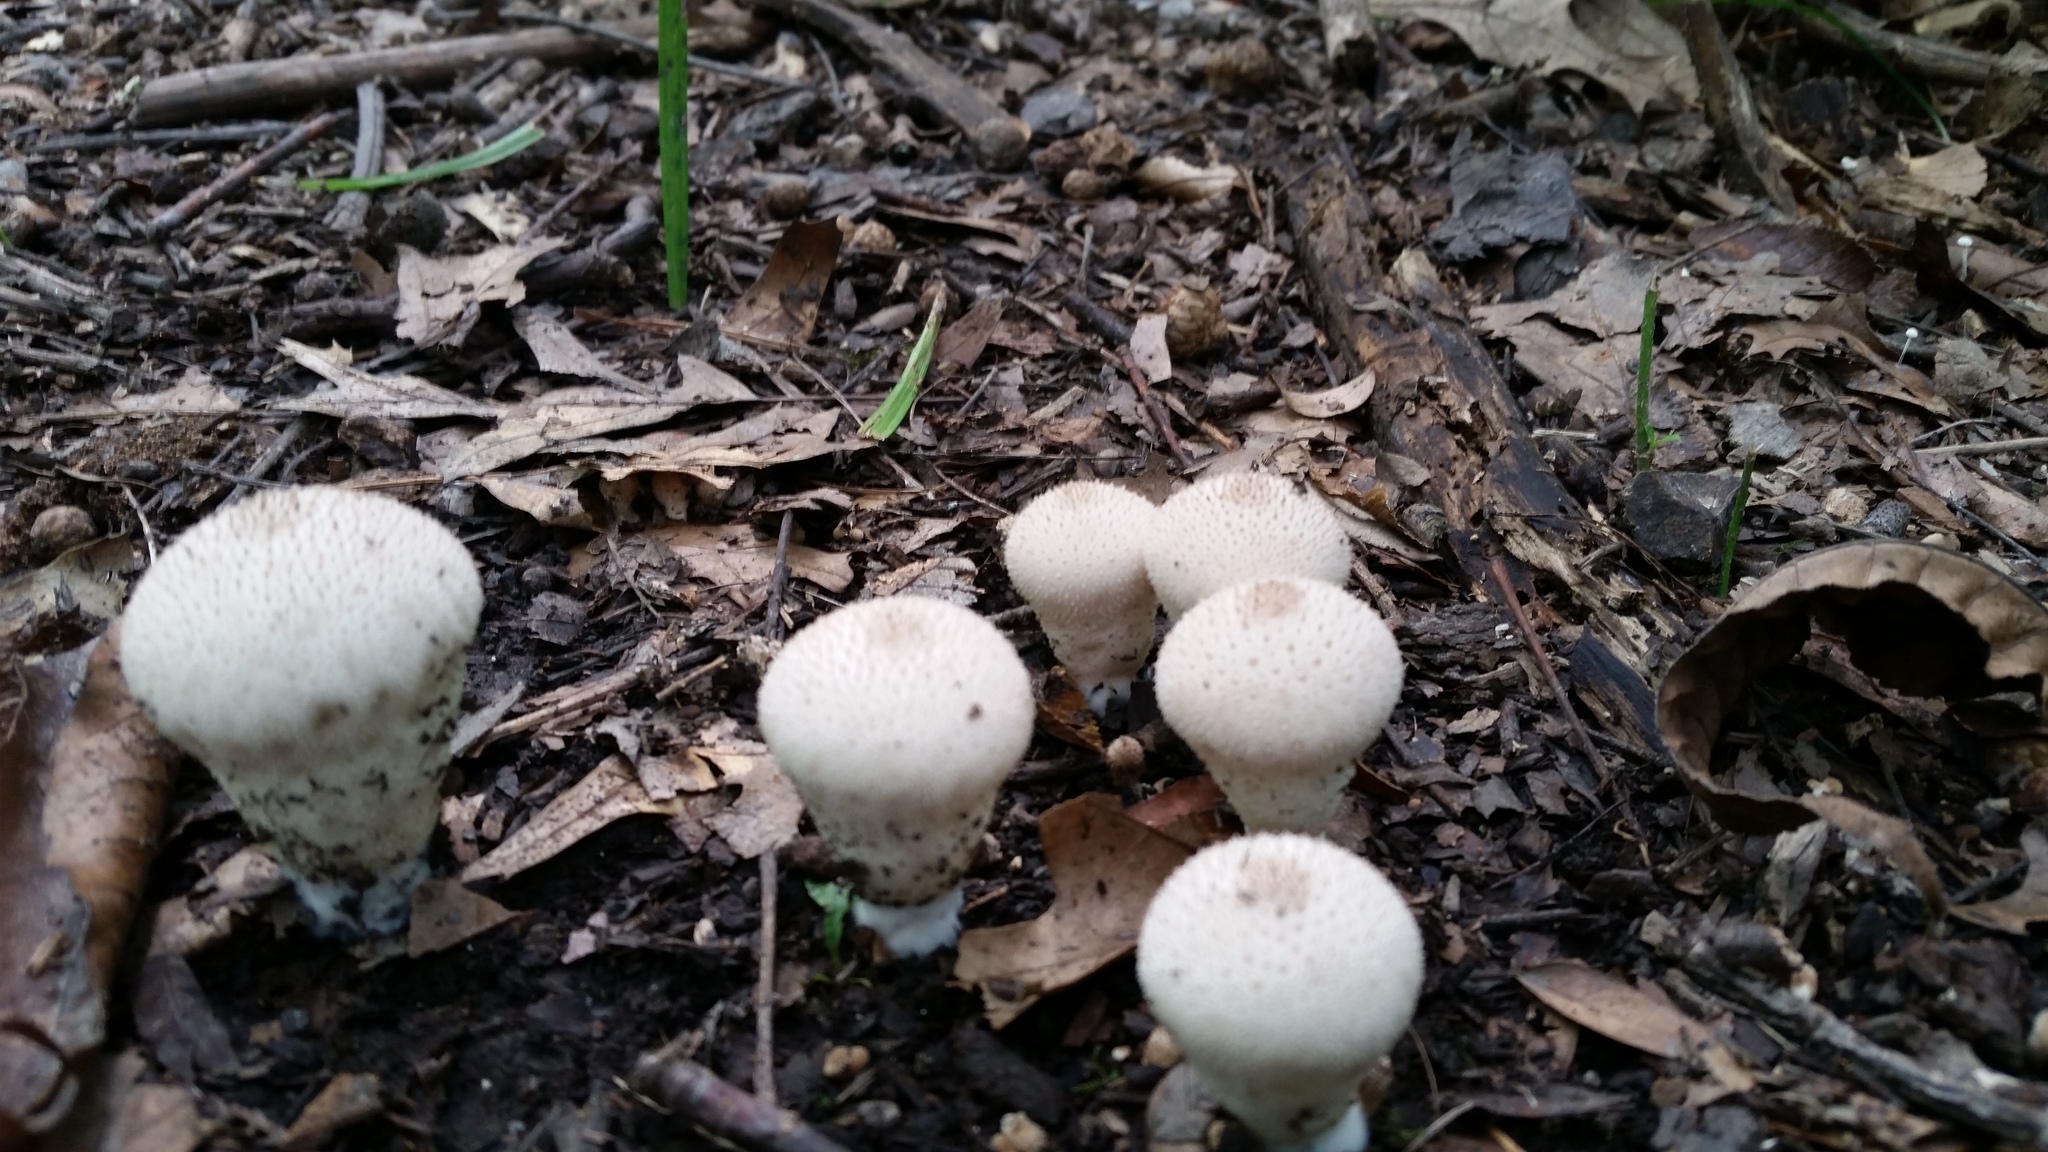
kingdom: Fungi
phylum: Basidiomycota
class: Agaricomycetes
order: Agaricales
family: Lycoperdaceae
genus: Lycoperdon
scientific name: Lycoperdon perlatum
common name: Common puffball
